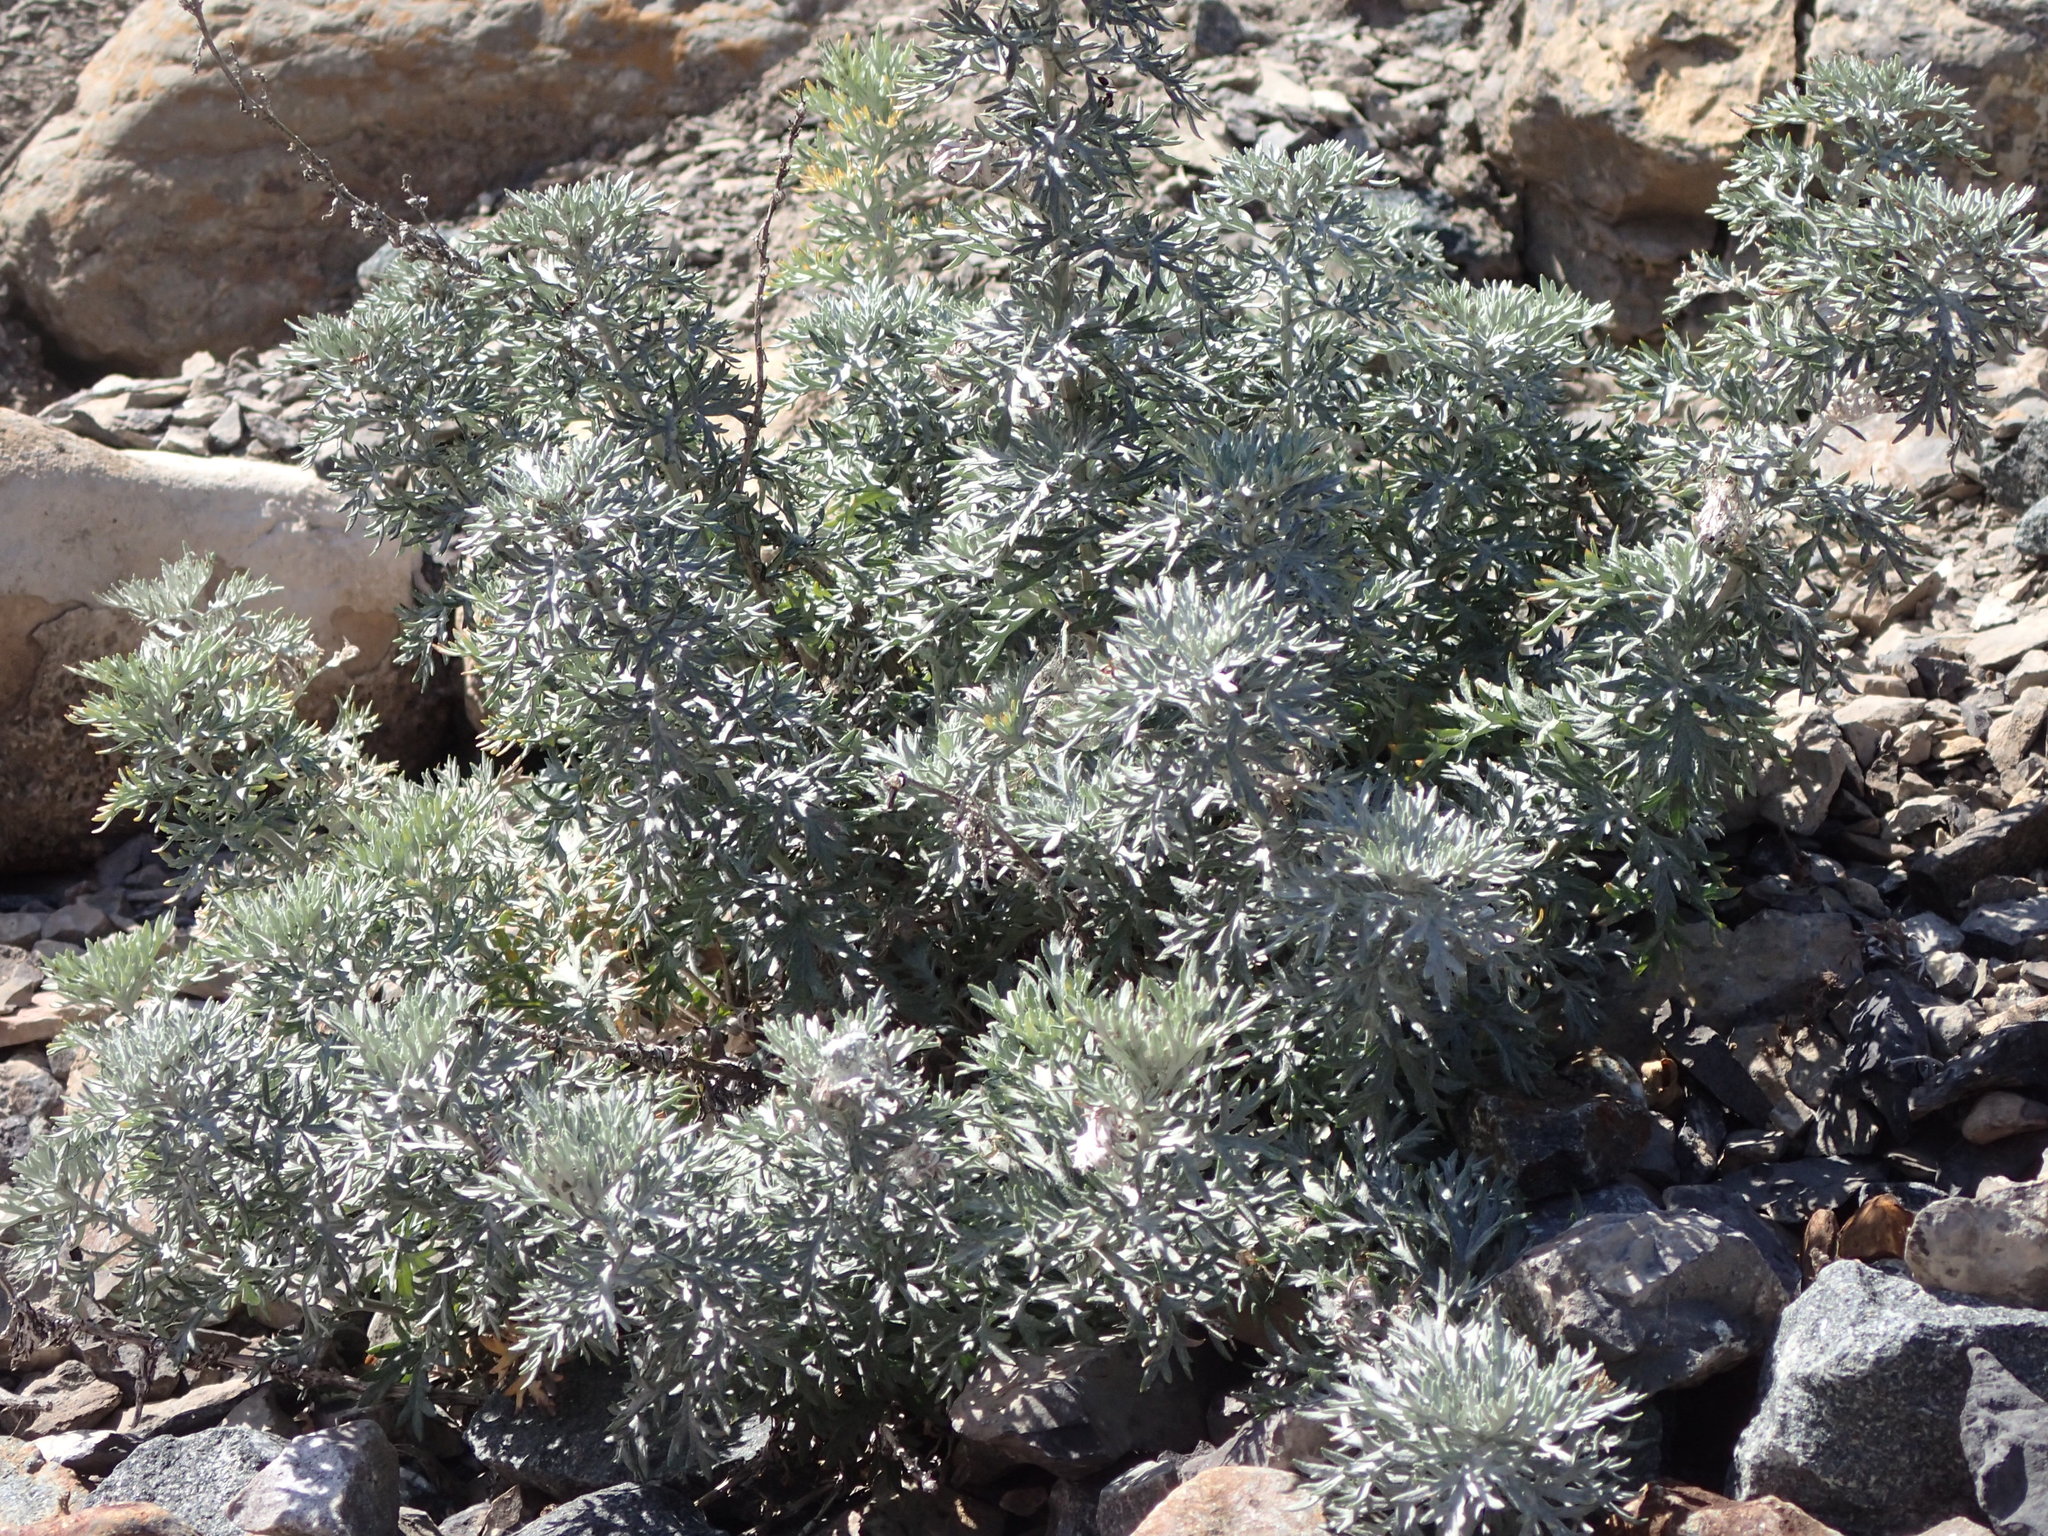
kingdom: Plantae
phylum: Tracheophyta
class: Magnoliopsida
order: Asterales
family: Asteraceae
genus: Artemisia
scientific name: Artemisia michauxiana
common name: Lemon sagewort
